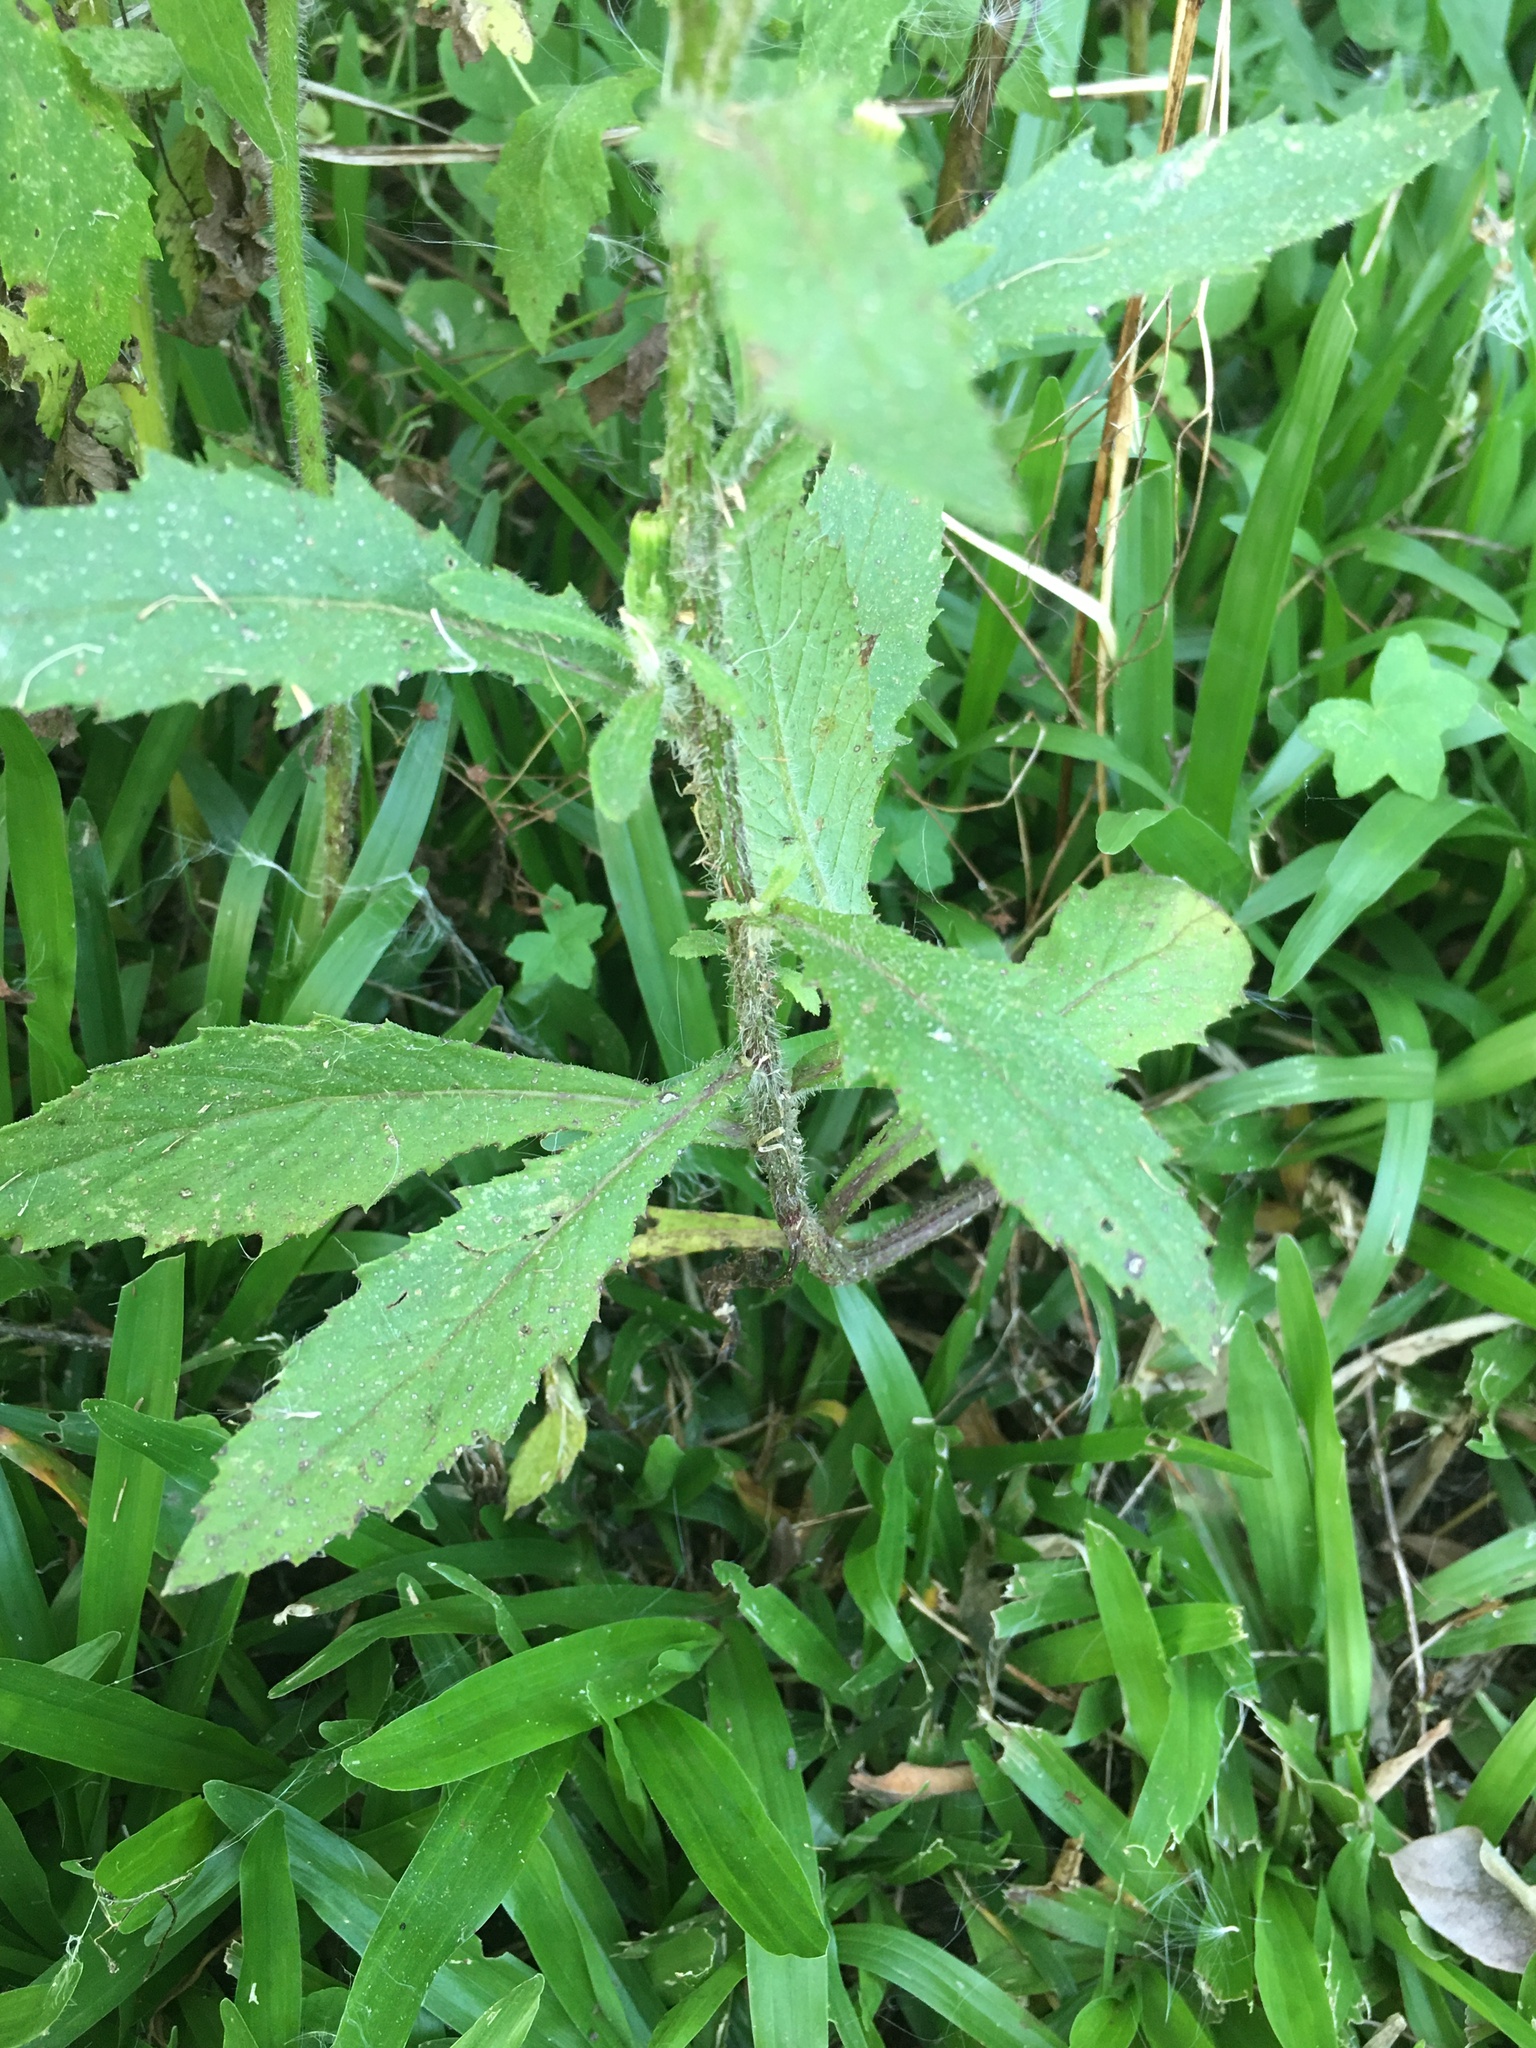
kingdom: Plantae
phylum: Tracheophyta
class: Magnoliopsida
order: Asterales
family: Asteraceae
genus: Erechtites
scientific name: Erechtites hieraciifolius
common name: American burnweed
